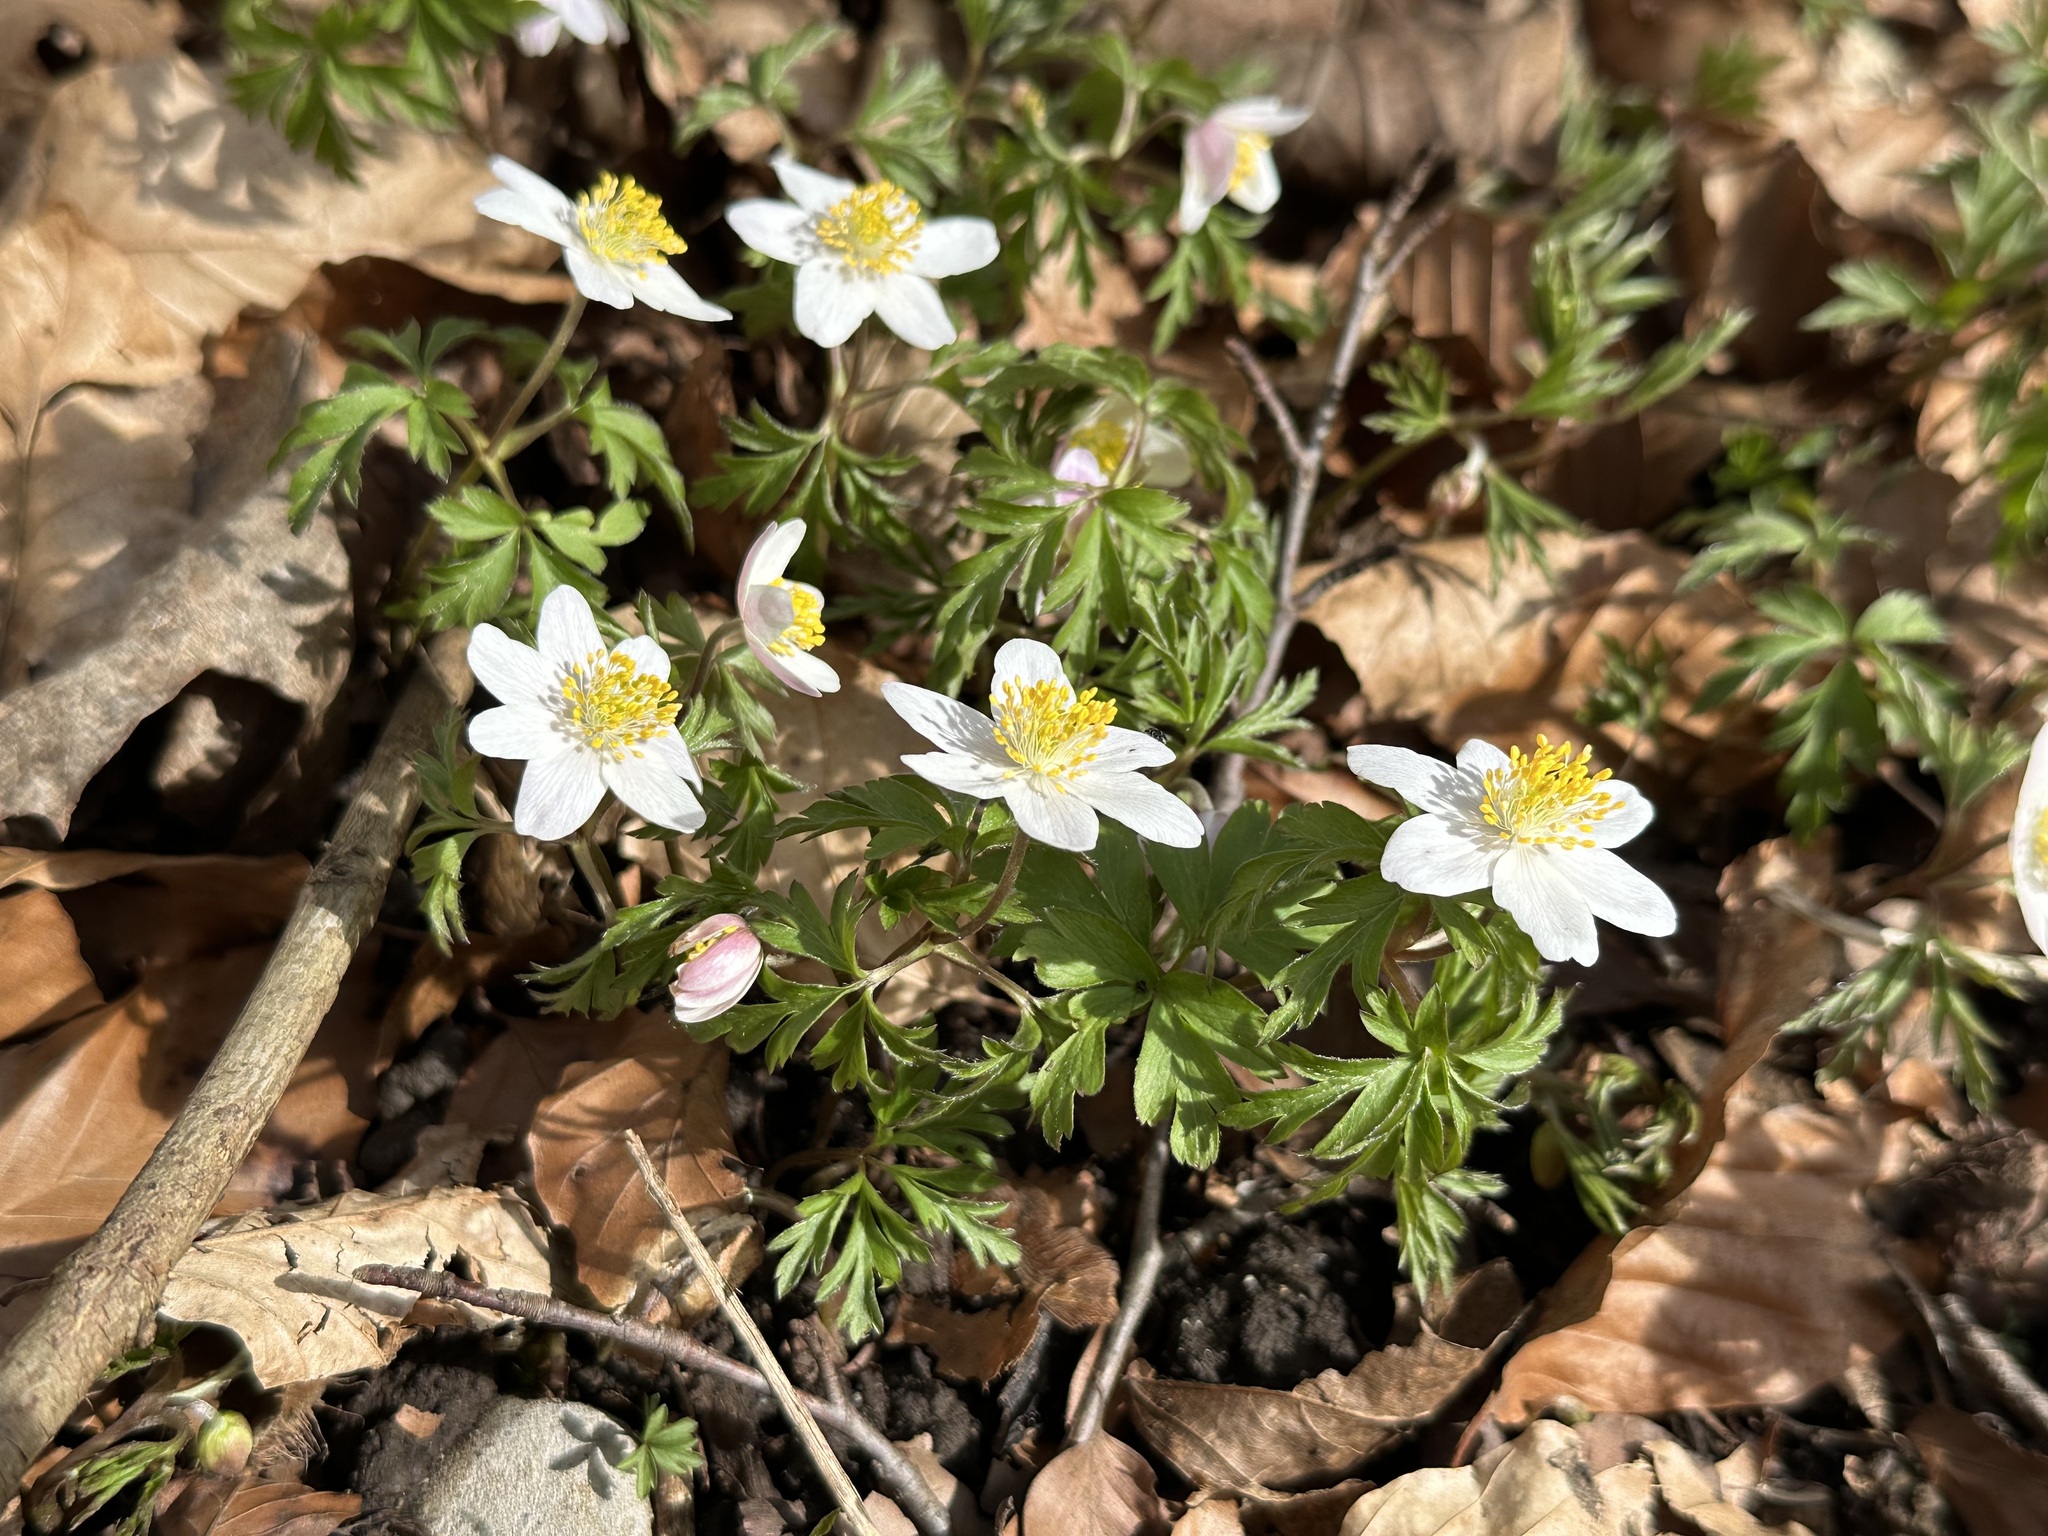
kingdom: Plantae
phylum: Tracheophyta
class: Magnoliopsida
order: Ranunculales
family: Ranunculaceae
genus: Anemone
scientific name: Anemone nemorosa
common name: Wood anemone
